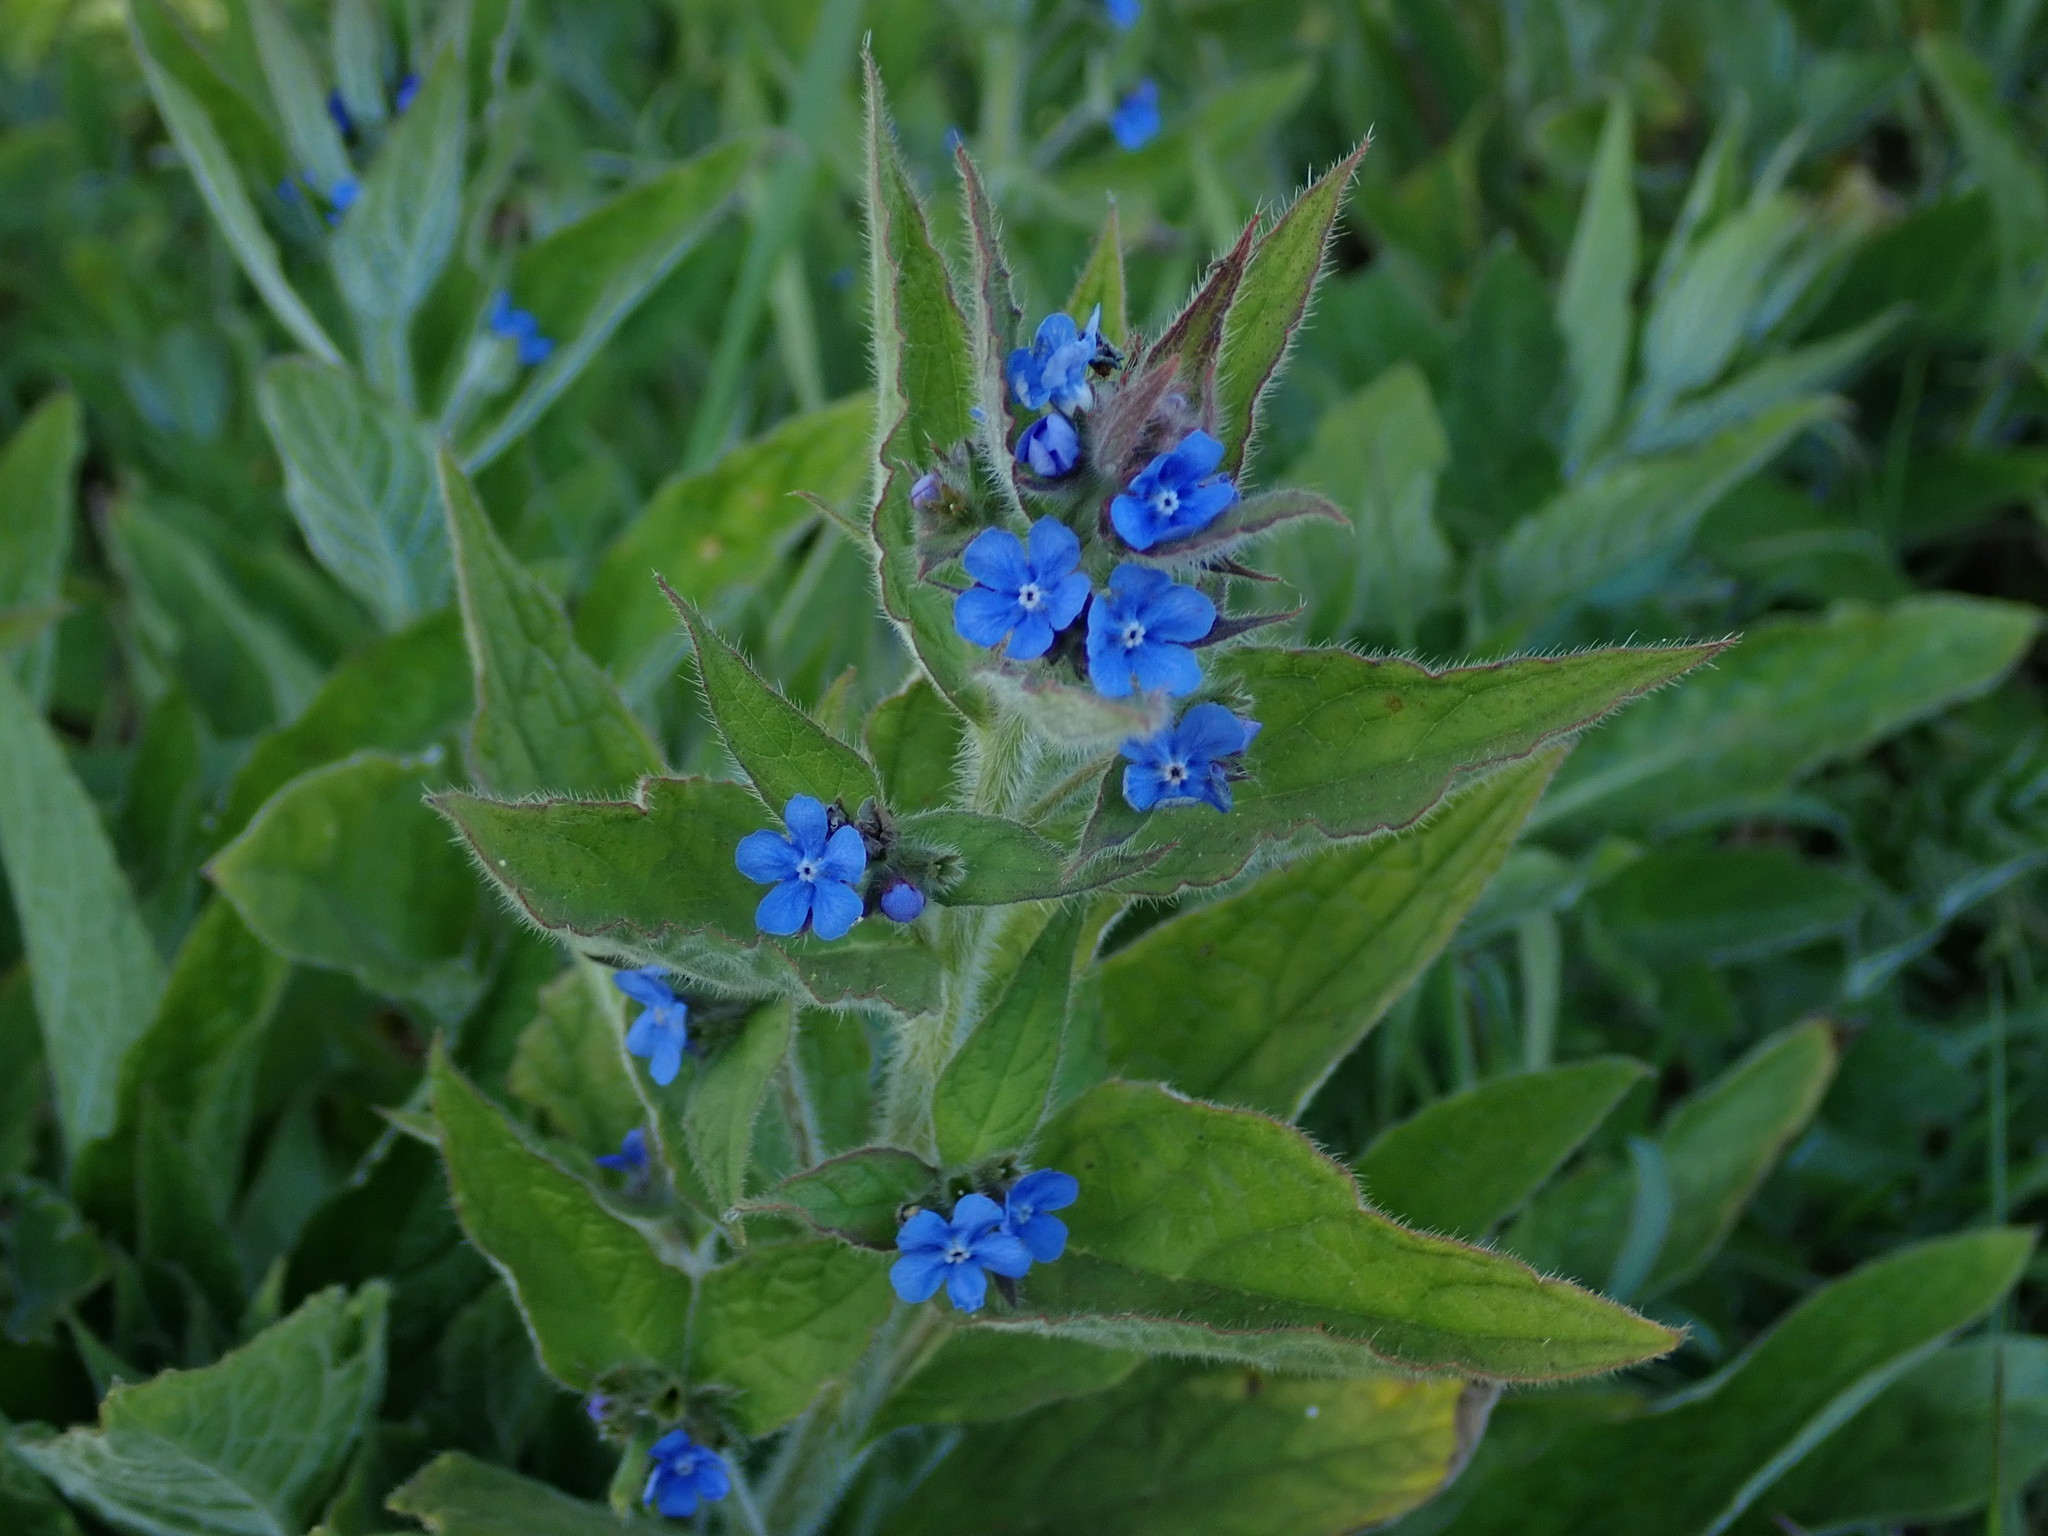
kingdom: Plantae
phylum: Tracheophyta
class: Magnoliopsida
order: Boraginales
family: Boraginaceae
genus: Pentaglottis
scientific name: Pentaglottis sempervirens
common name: Green alkanet
